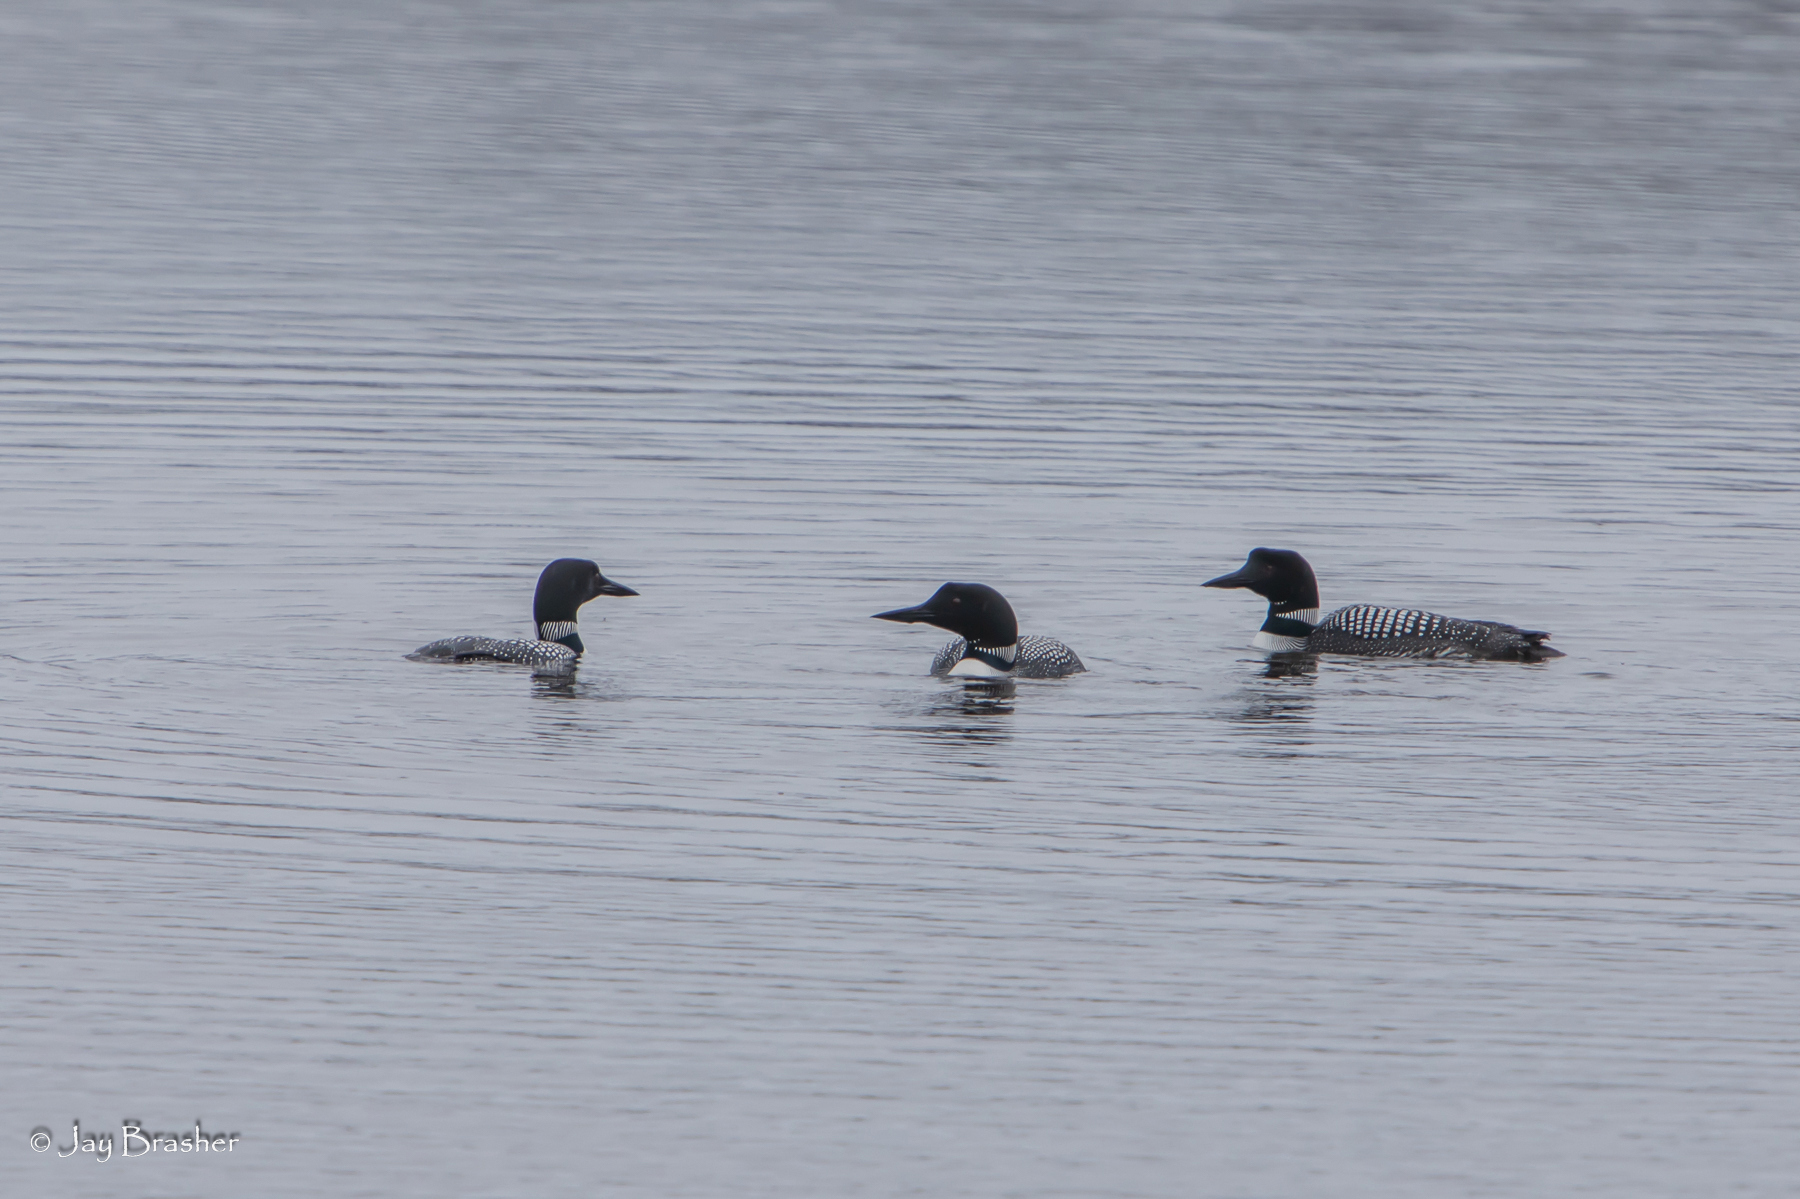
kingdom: Animalia
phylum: Chordata
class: Aves
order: Gaviiformes
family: Gaviidae
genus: Gavia
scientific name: Gavia immer
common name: Common loon
